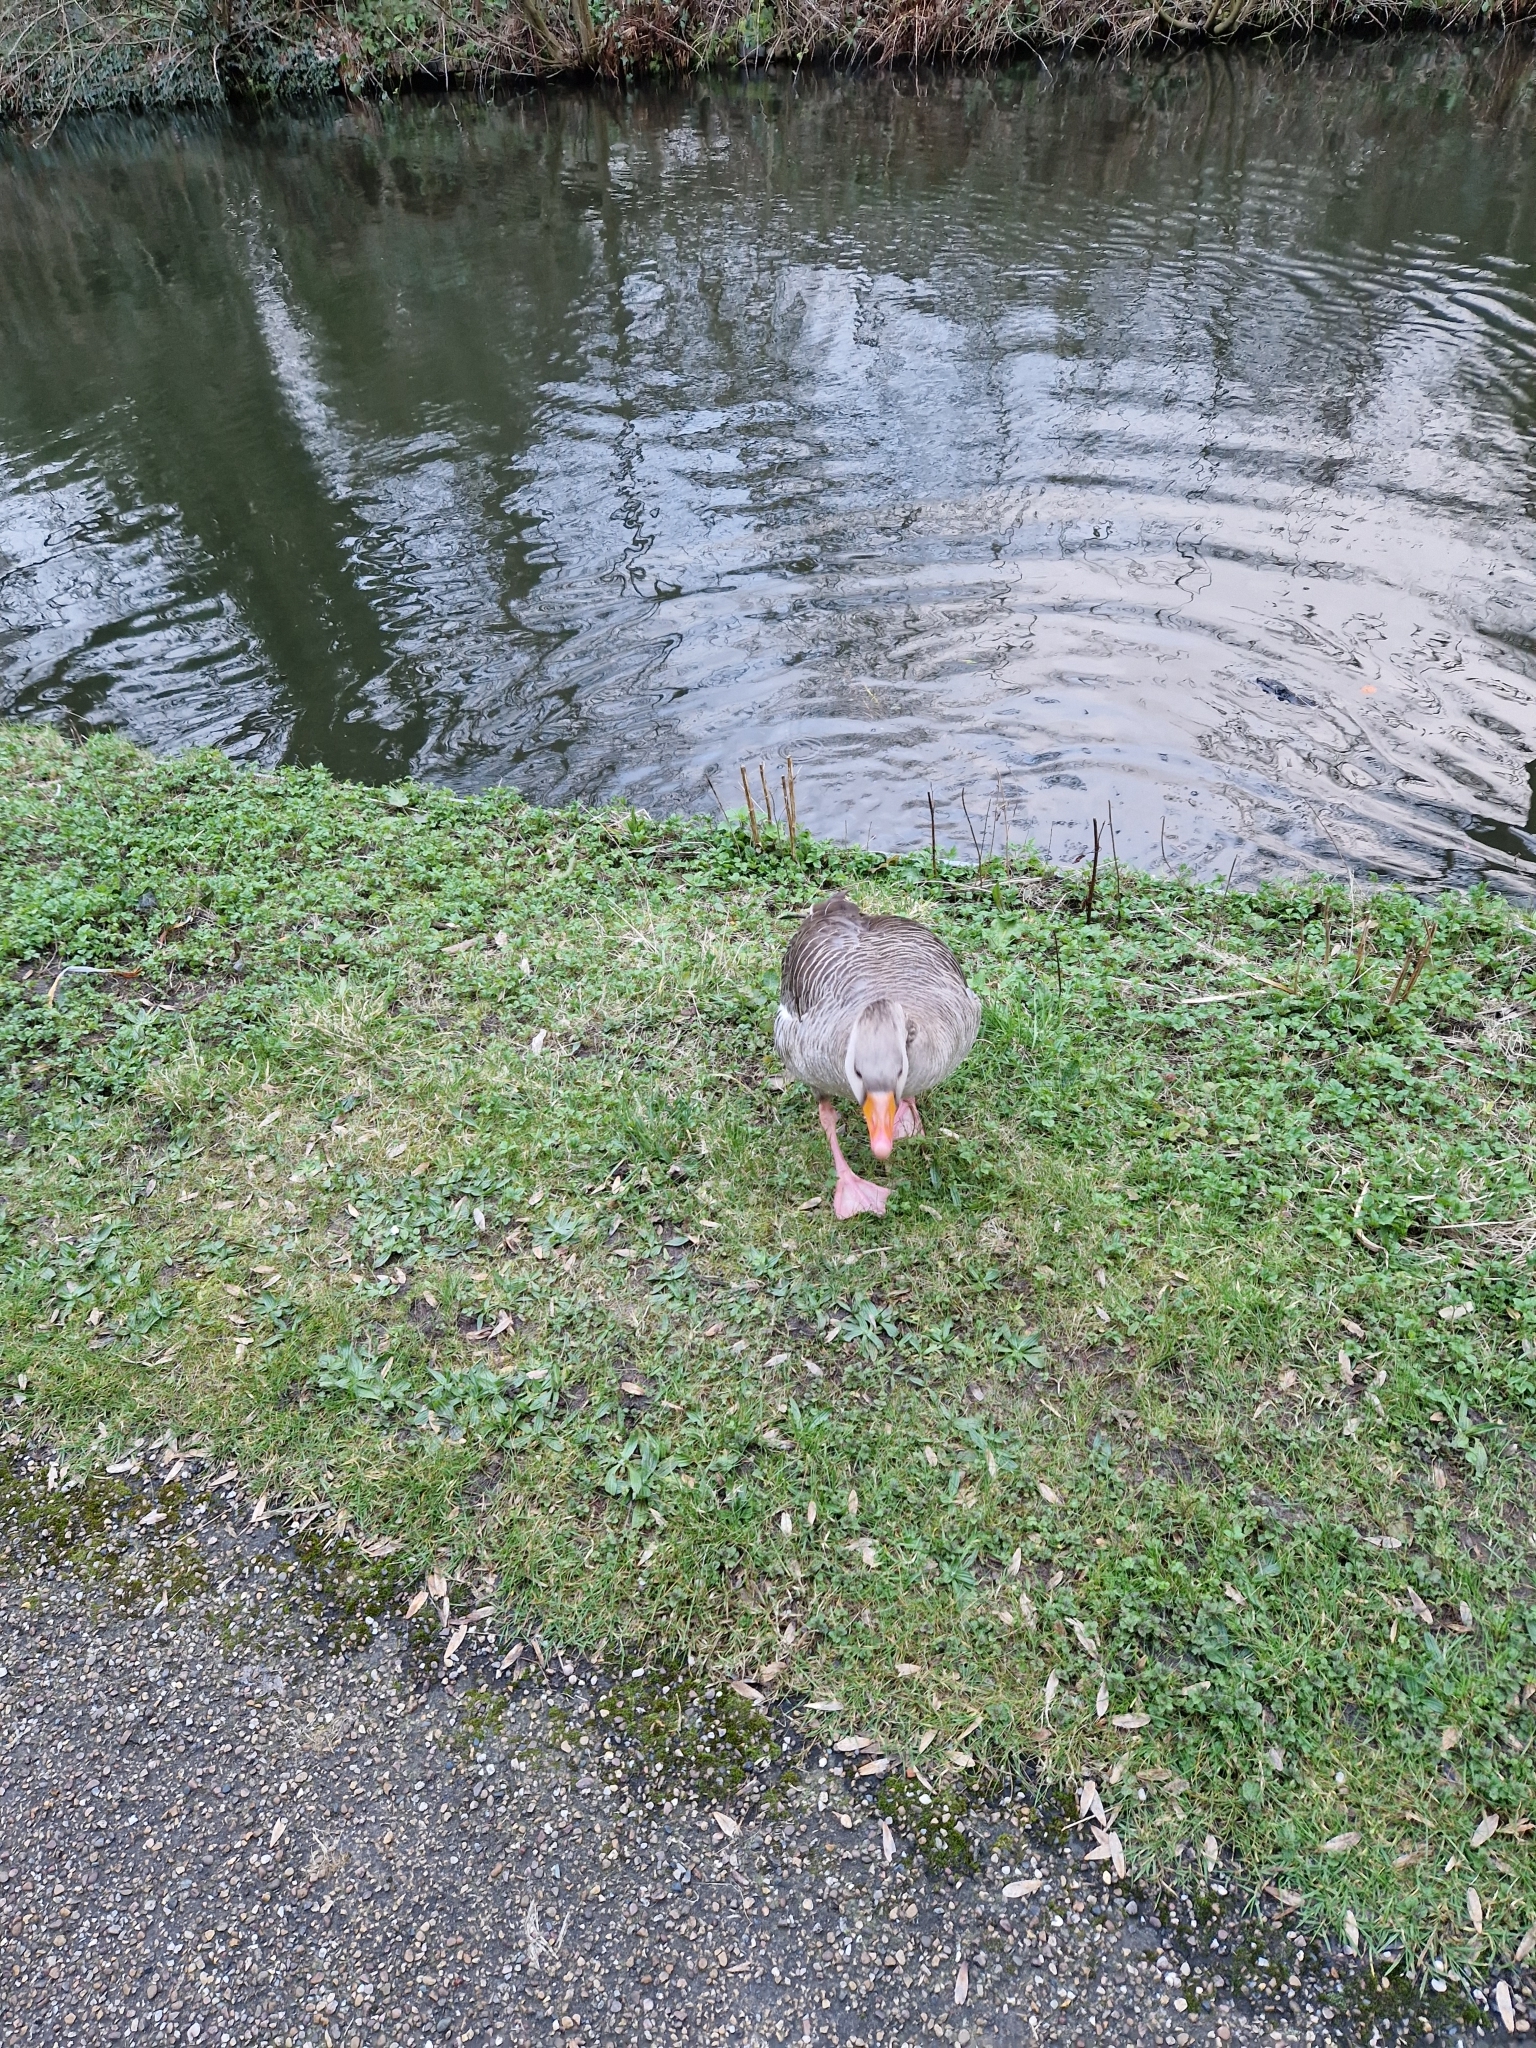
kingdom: Animalia
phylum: Chordata
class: Aves
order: Anseriformes
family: Anatidae
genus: Anser
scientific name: Anser anser
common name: Greylag goose
